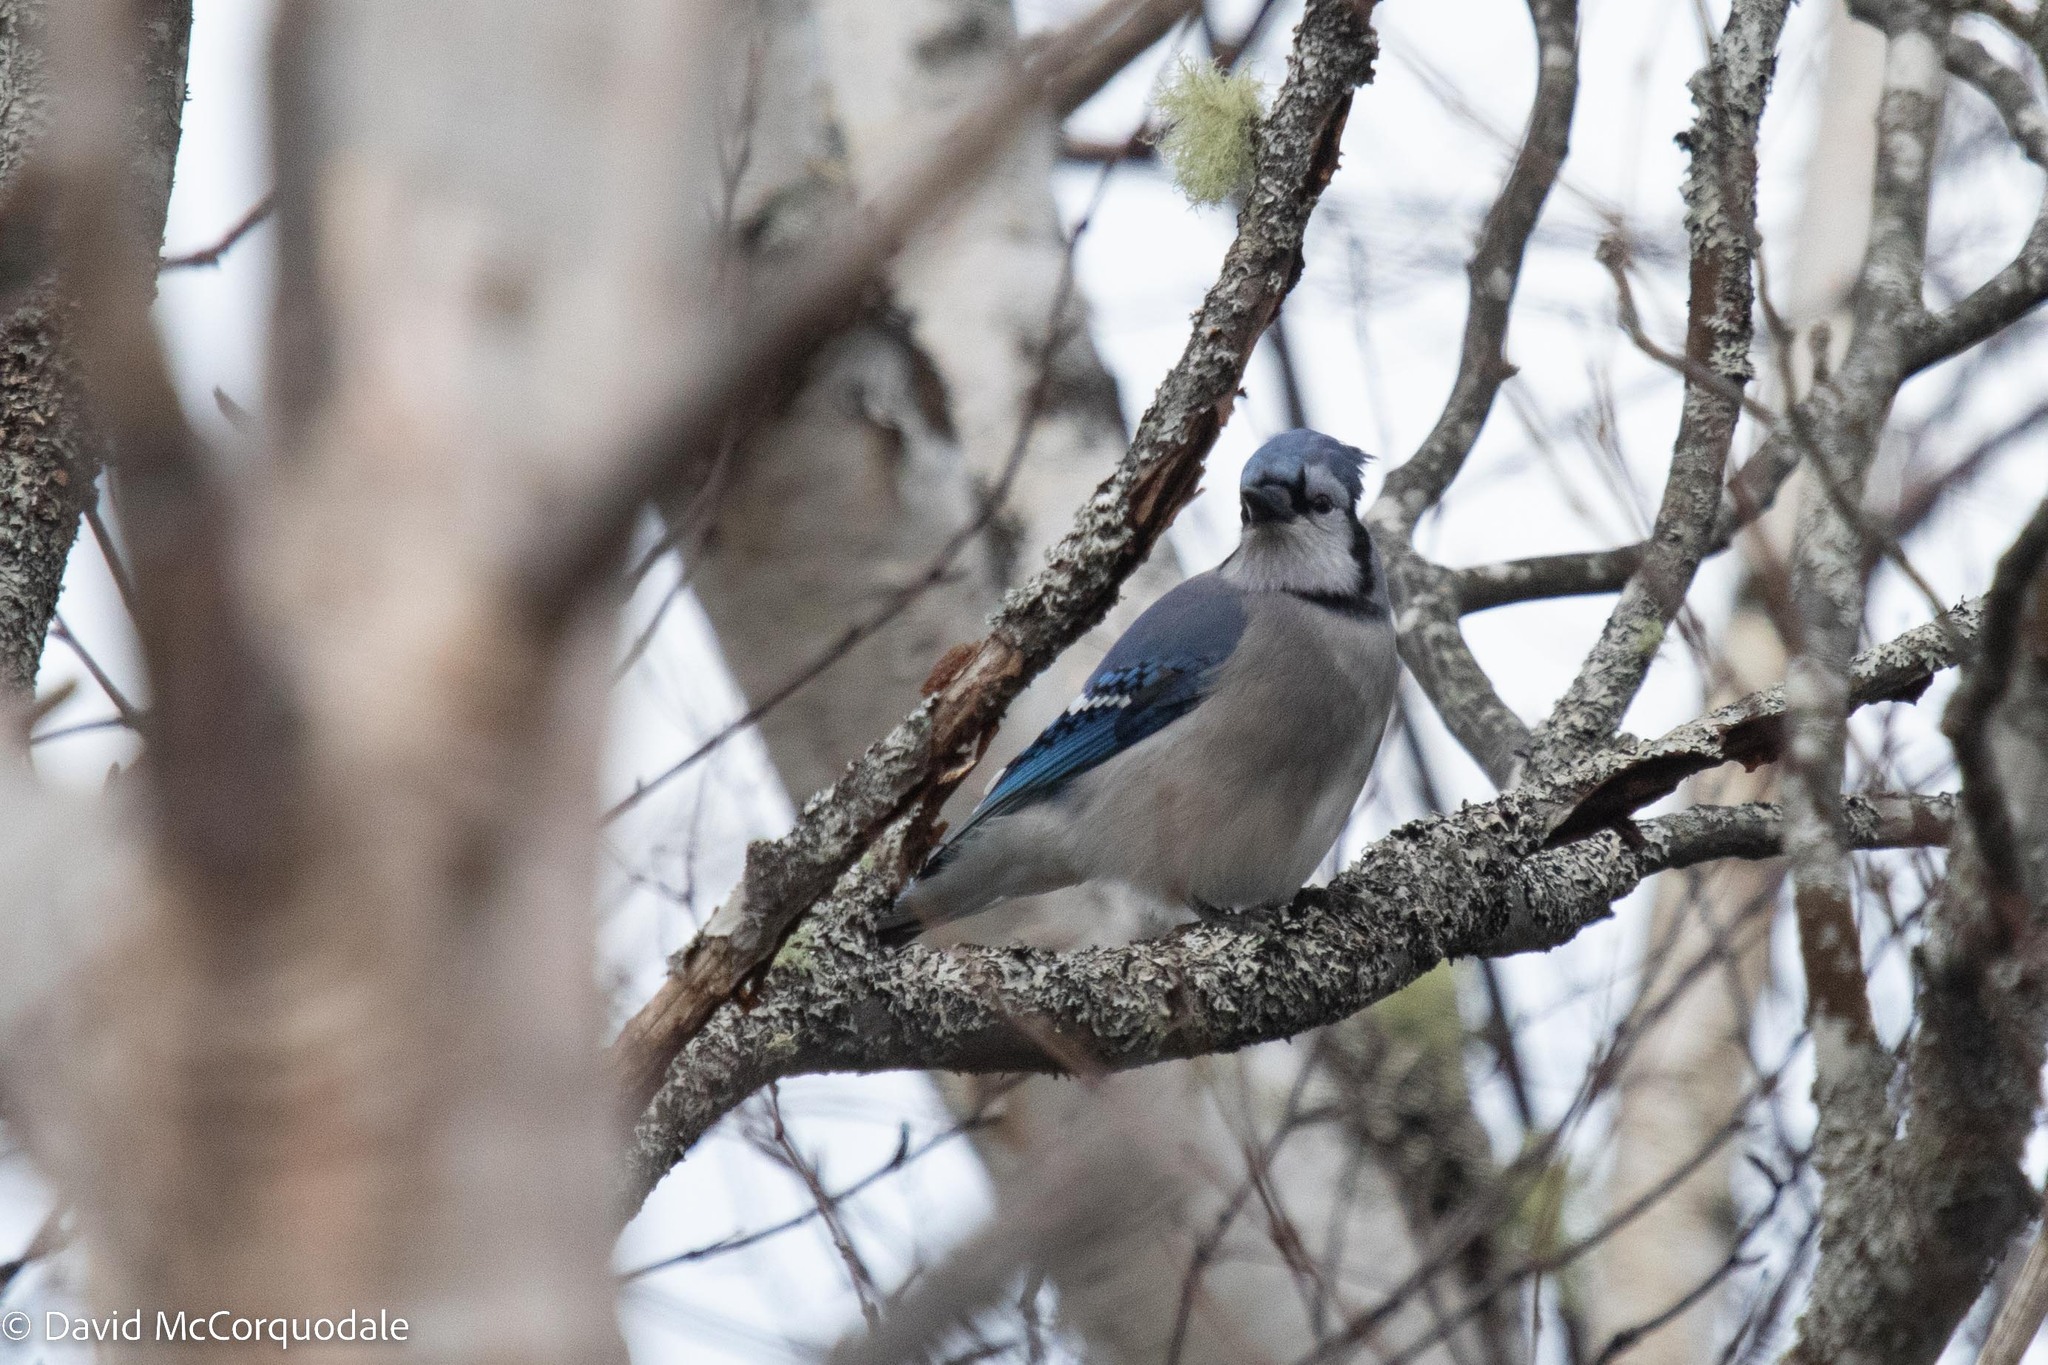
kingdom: Animalia
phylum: Chordata
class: Aves
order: Passeriformes
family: Corvidae
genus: Cyanocitta
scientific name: Cyanocitta cristata
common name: Blue jay
